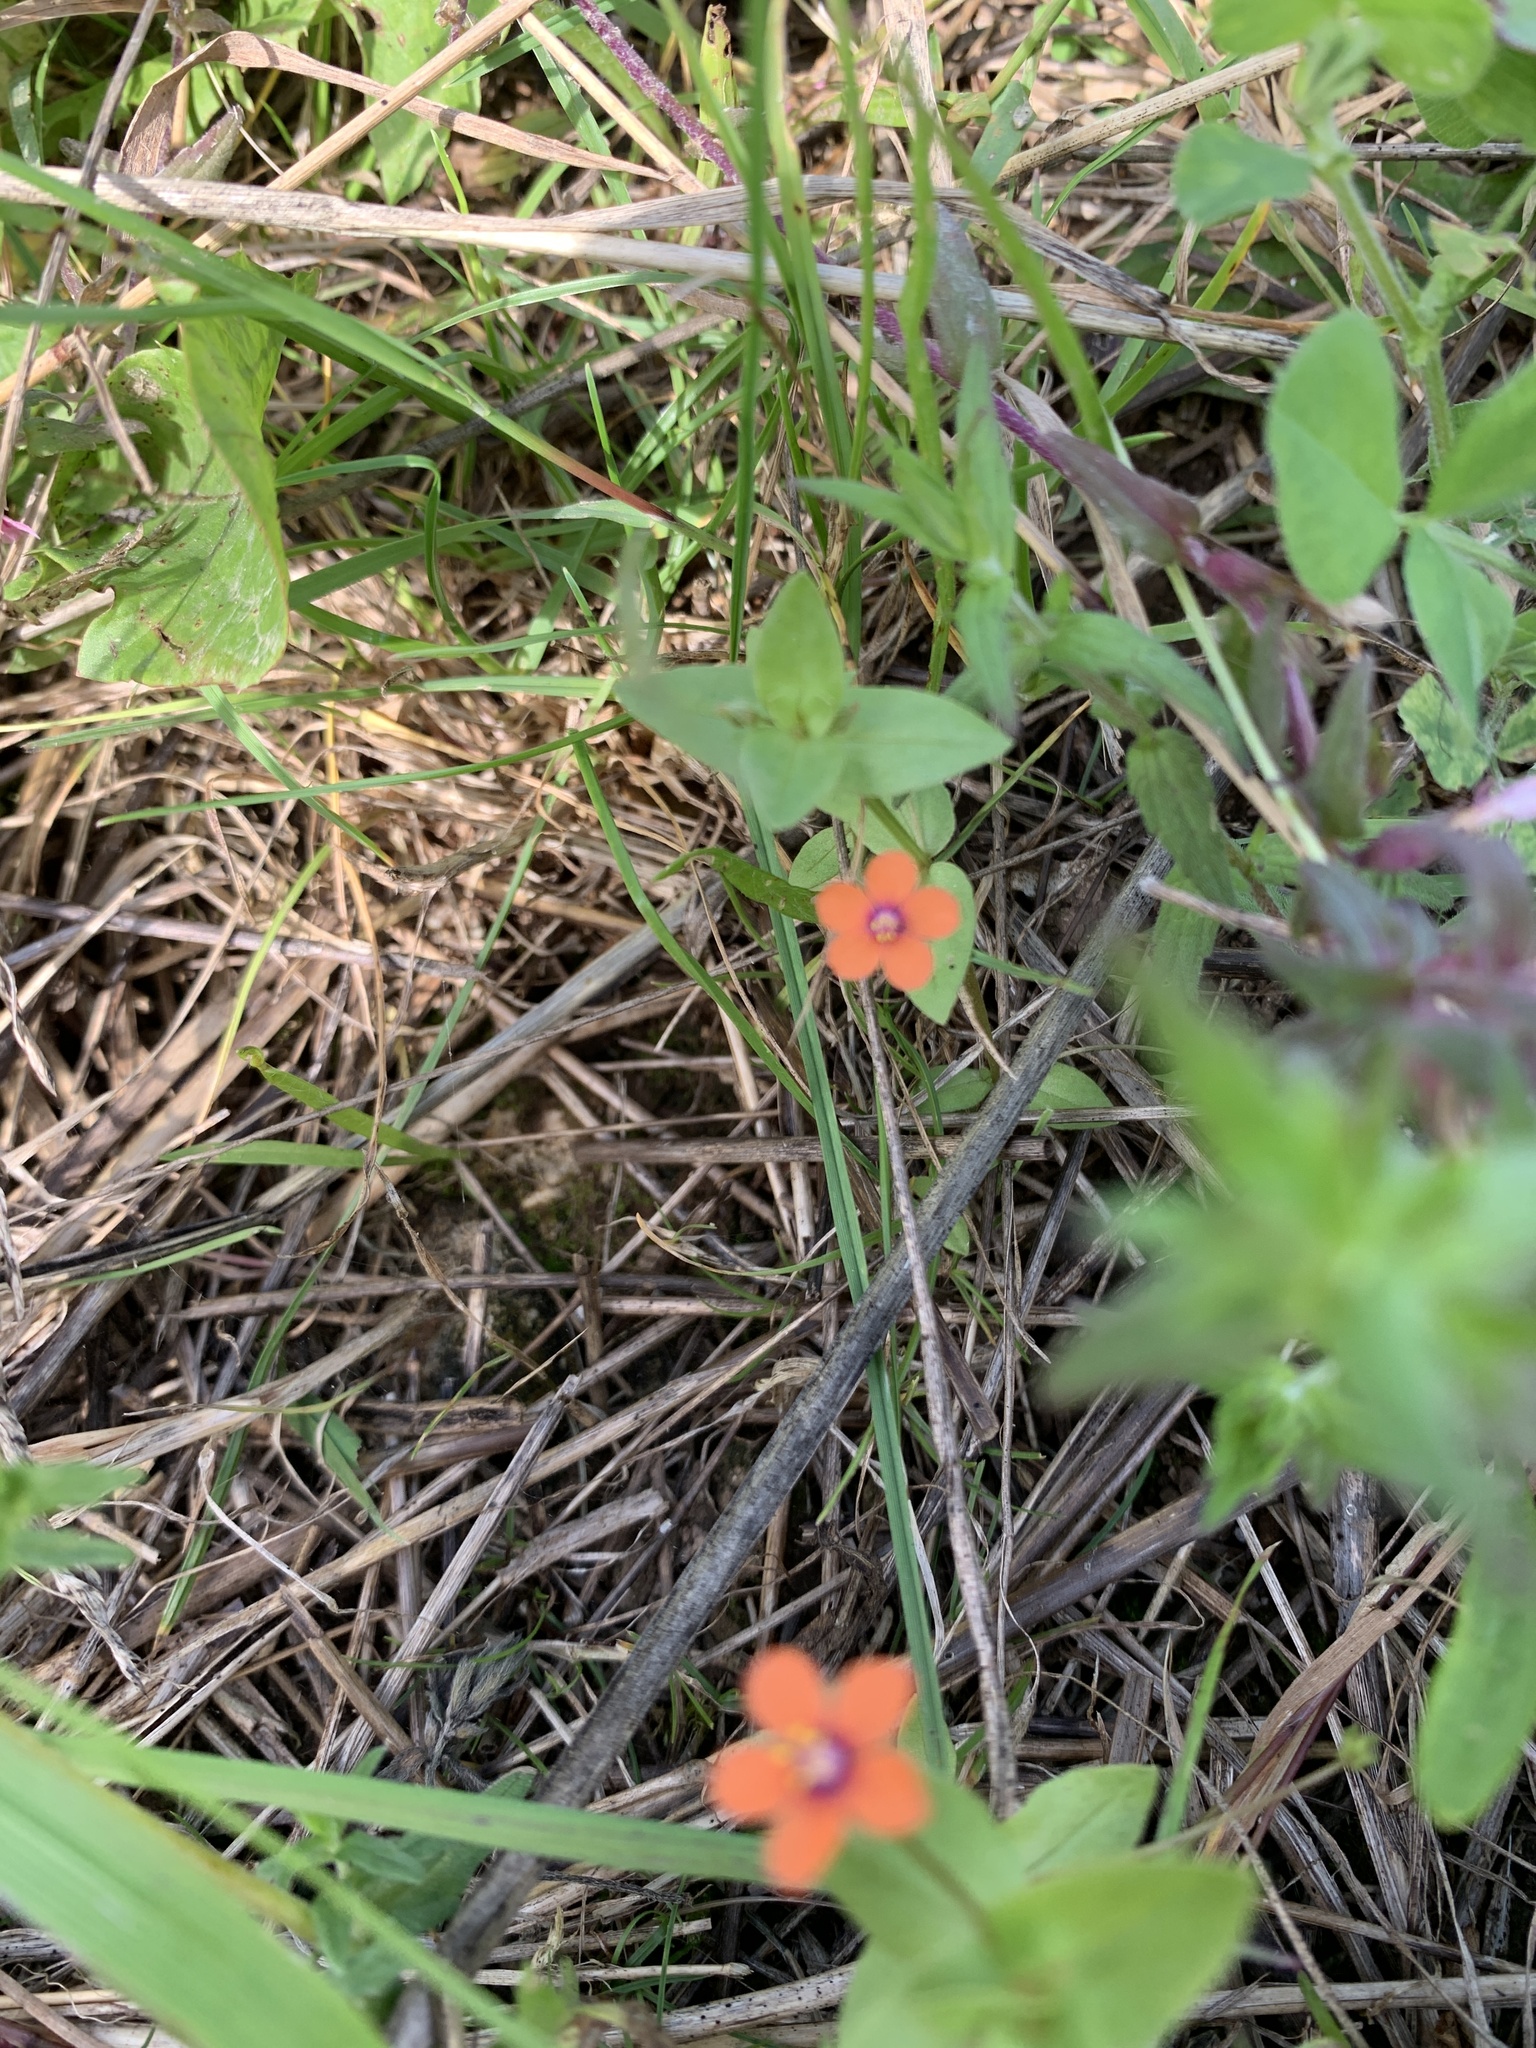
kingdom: Plantae
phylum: Tracheophyta
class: Magnoliopsida
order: Ericales
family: Primulaceae
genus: Lysimachia
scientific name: Lysimachia arvensis
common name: Scarlet pimpernel
